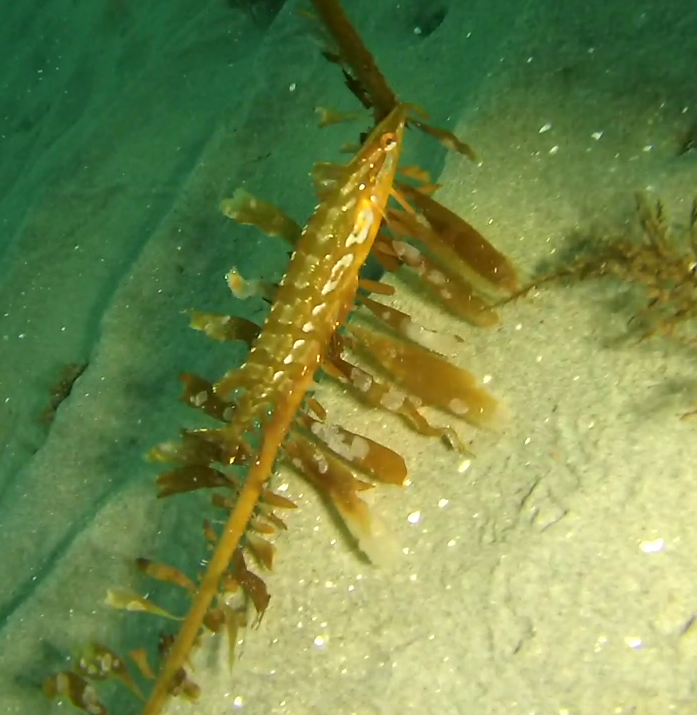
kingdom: Animalia
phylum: Chordata
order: Perciformes
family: Clinidae
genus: Heterostichus
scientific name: Heterostichus rostratus
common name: Giant kelpfish
